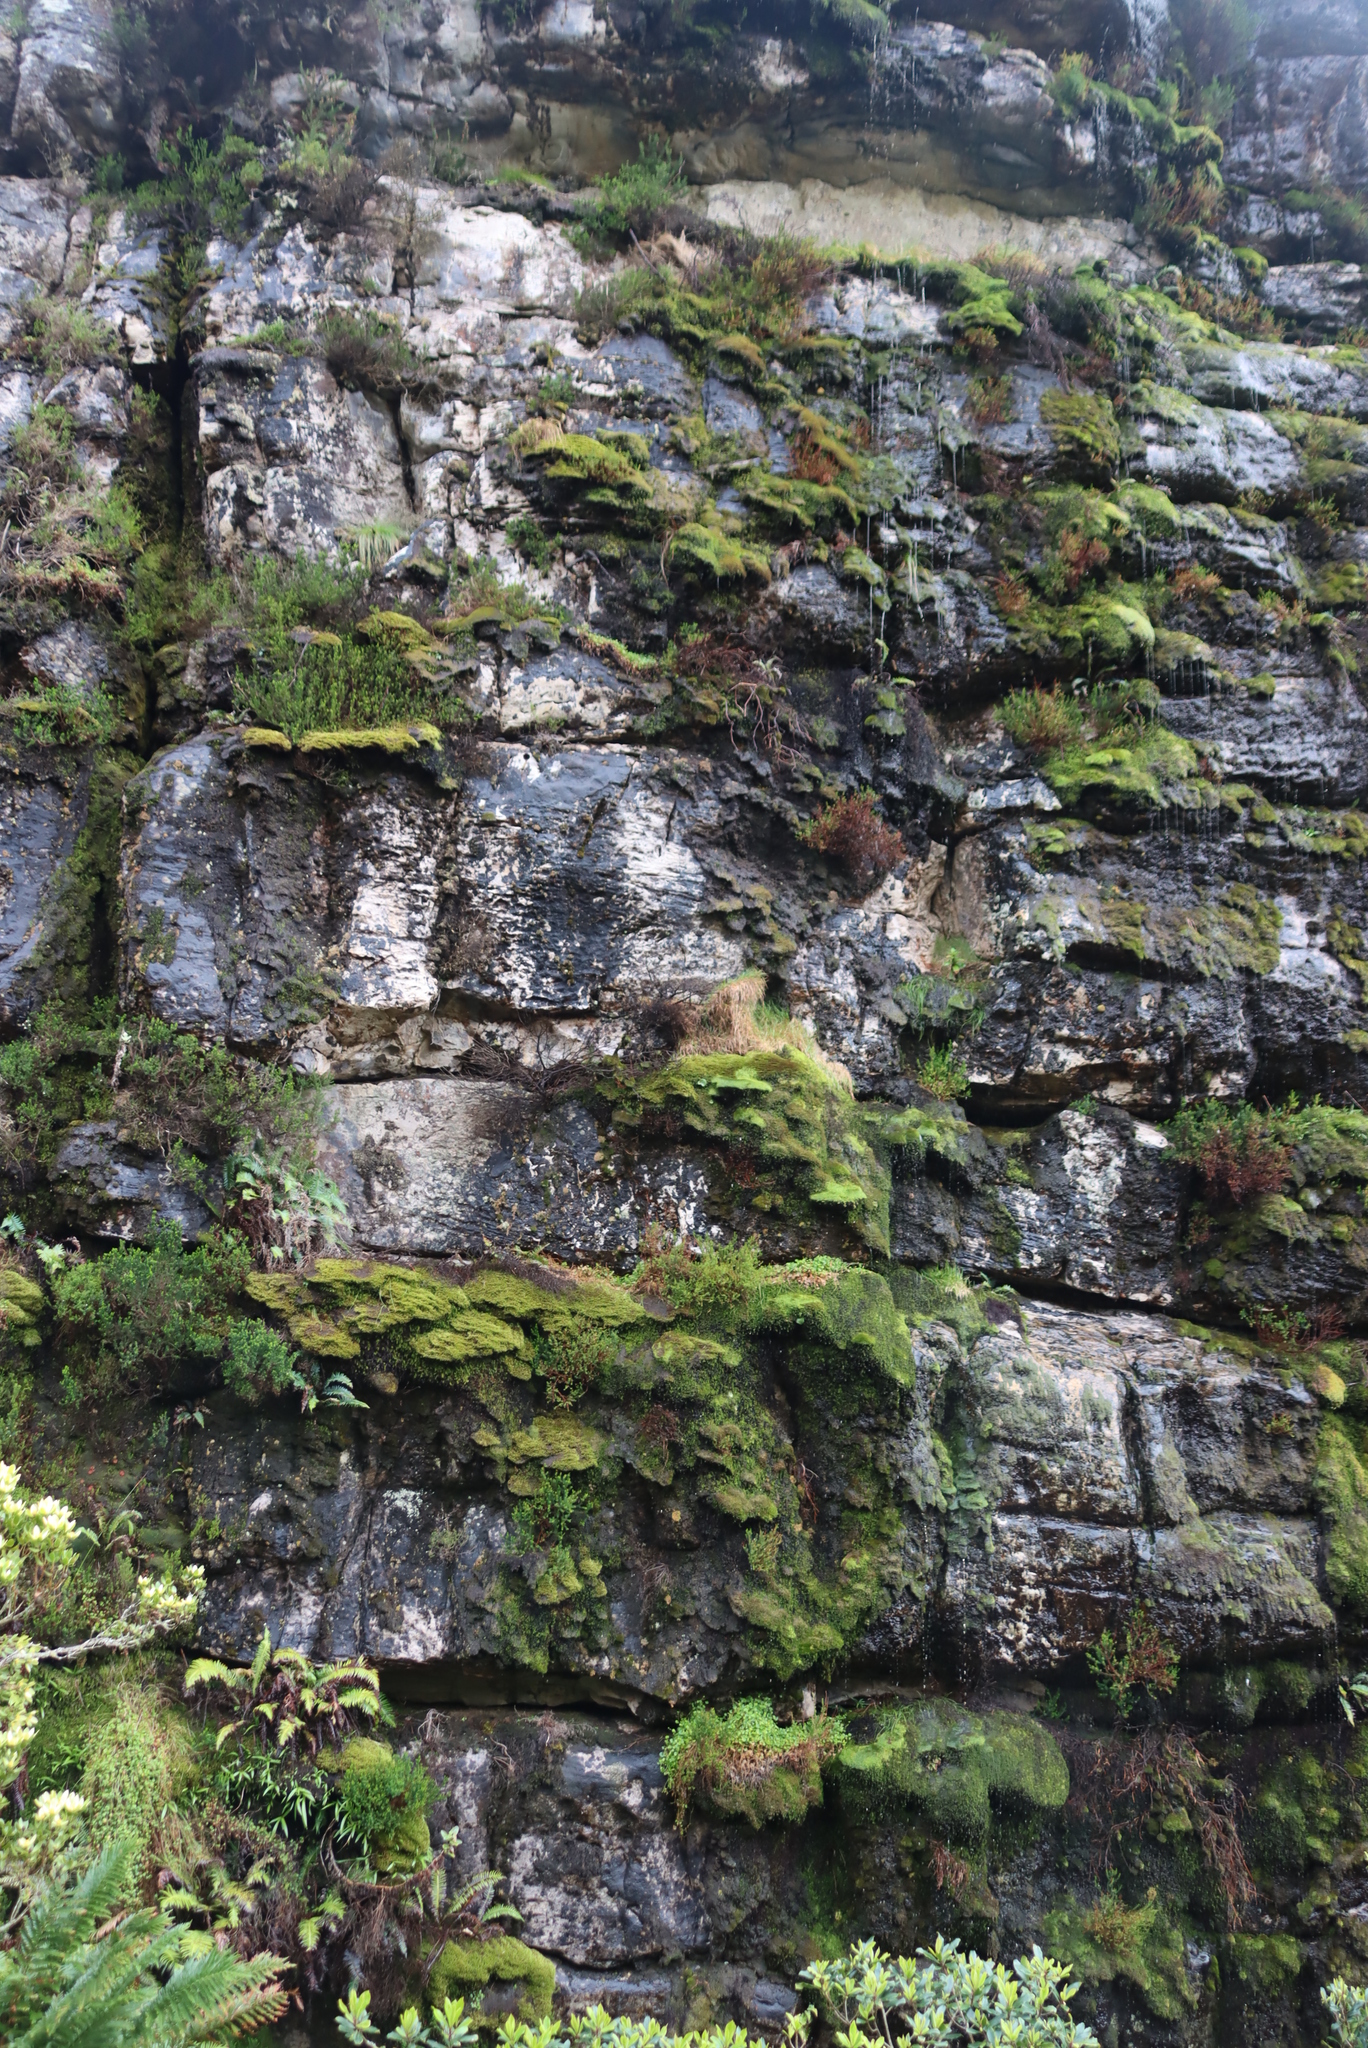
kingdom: Plantae
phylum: Tracheophyta
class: Polypodiopsida
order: Hymenophyllales
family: Hymenophyllaceae
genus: Hymenophyllum
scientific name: Hymenophyllum capense
